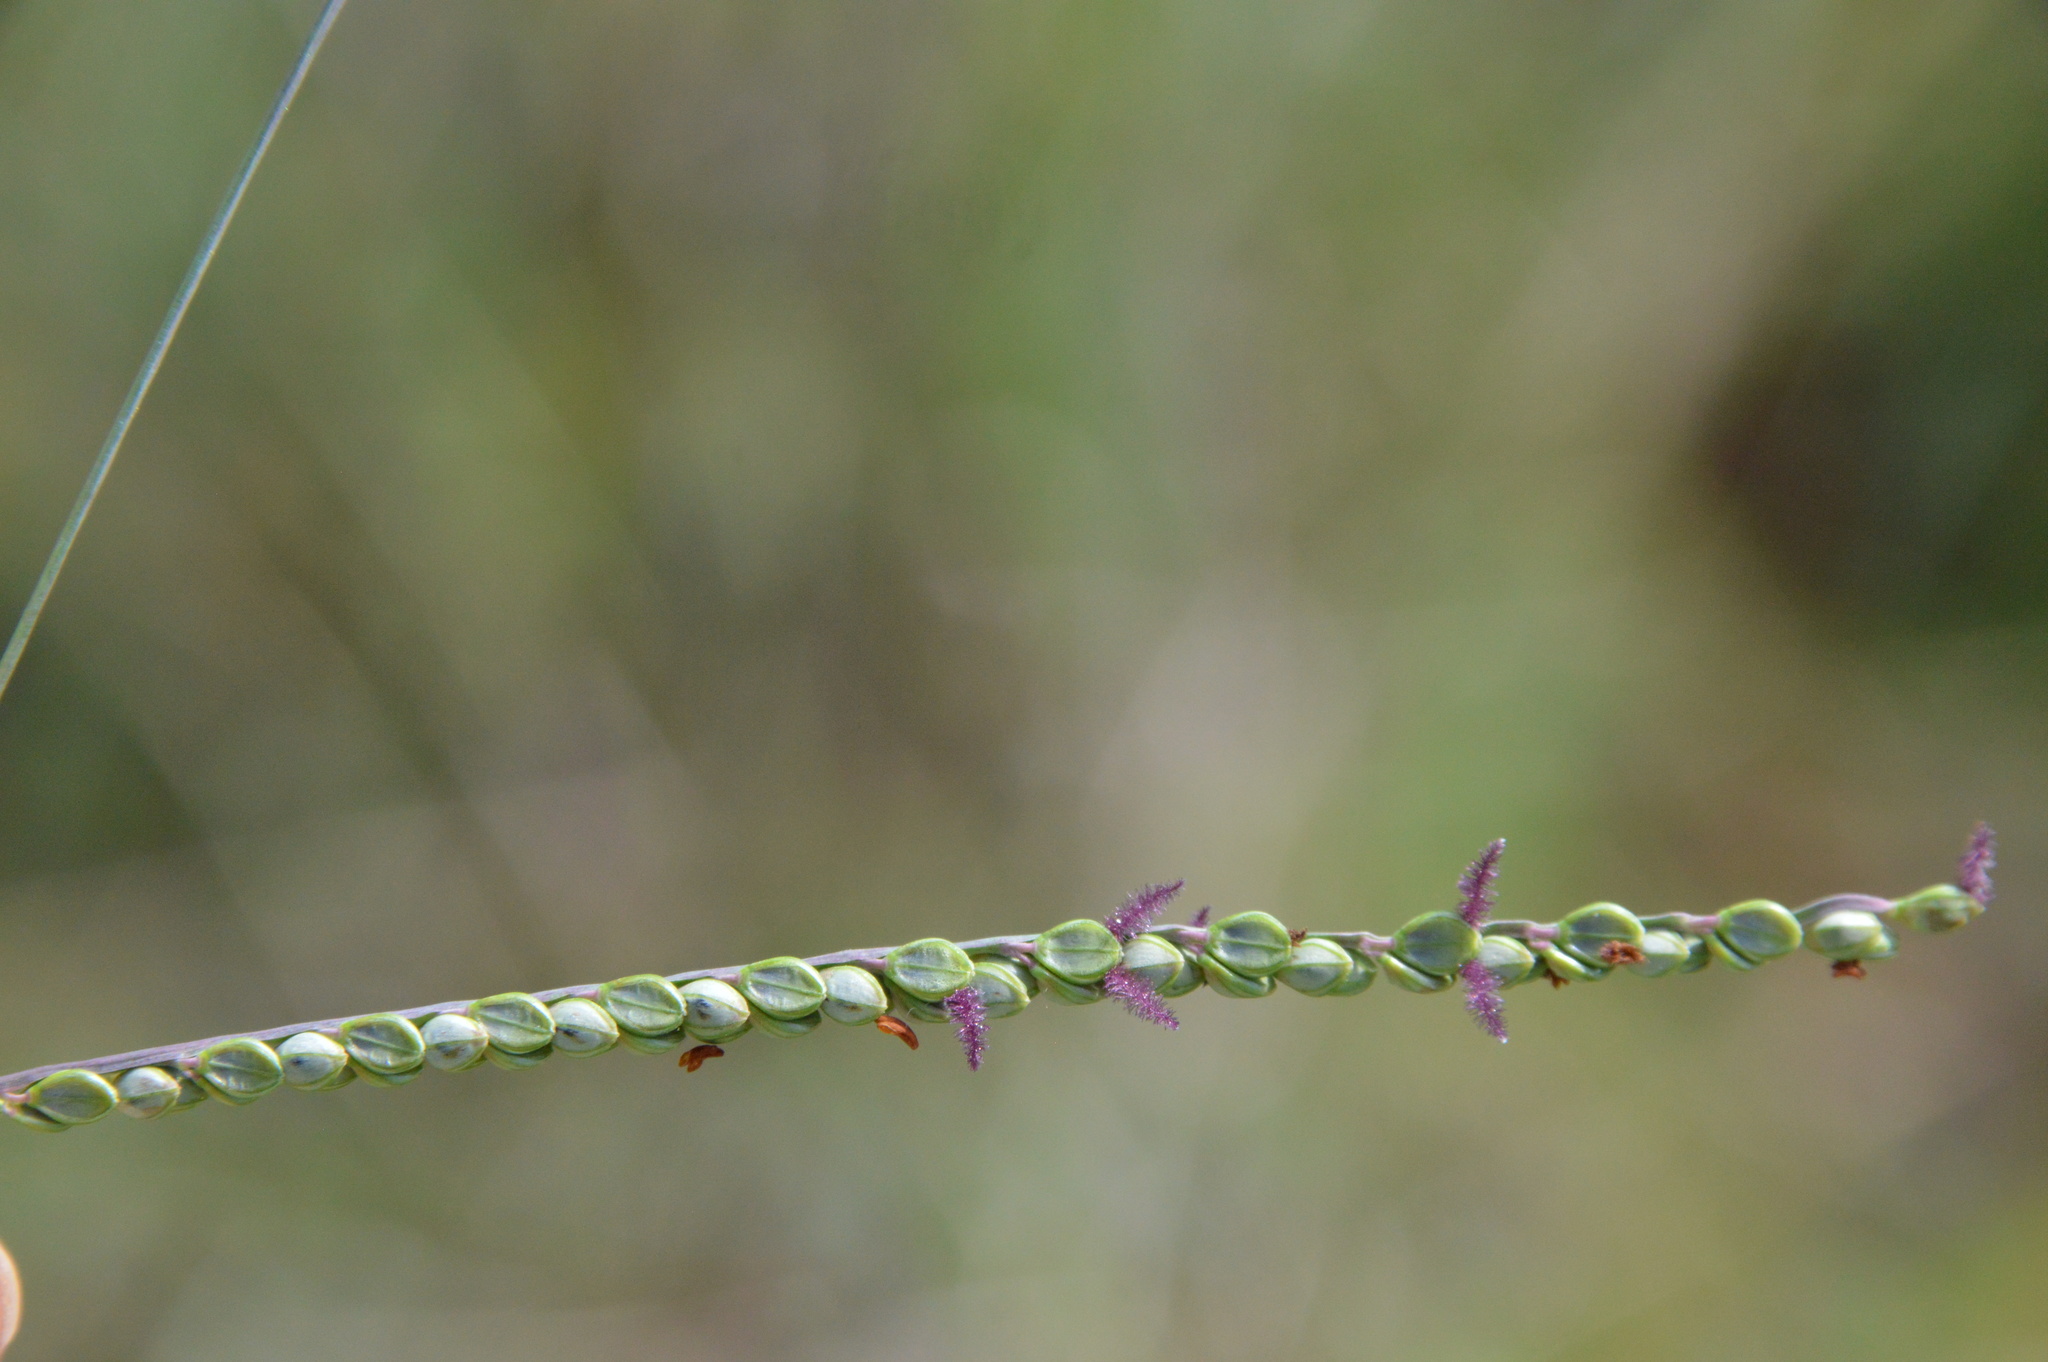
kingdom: Plantae
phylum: Tracheophyta
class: Liliopsida
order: Poales
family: Poaceae
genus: Paspalum
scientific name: Paspalum plicatulum
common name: Top paspalum
